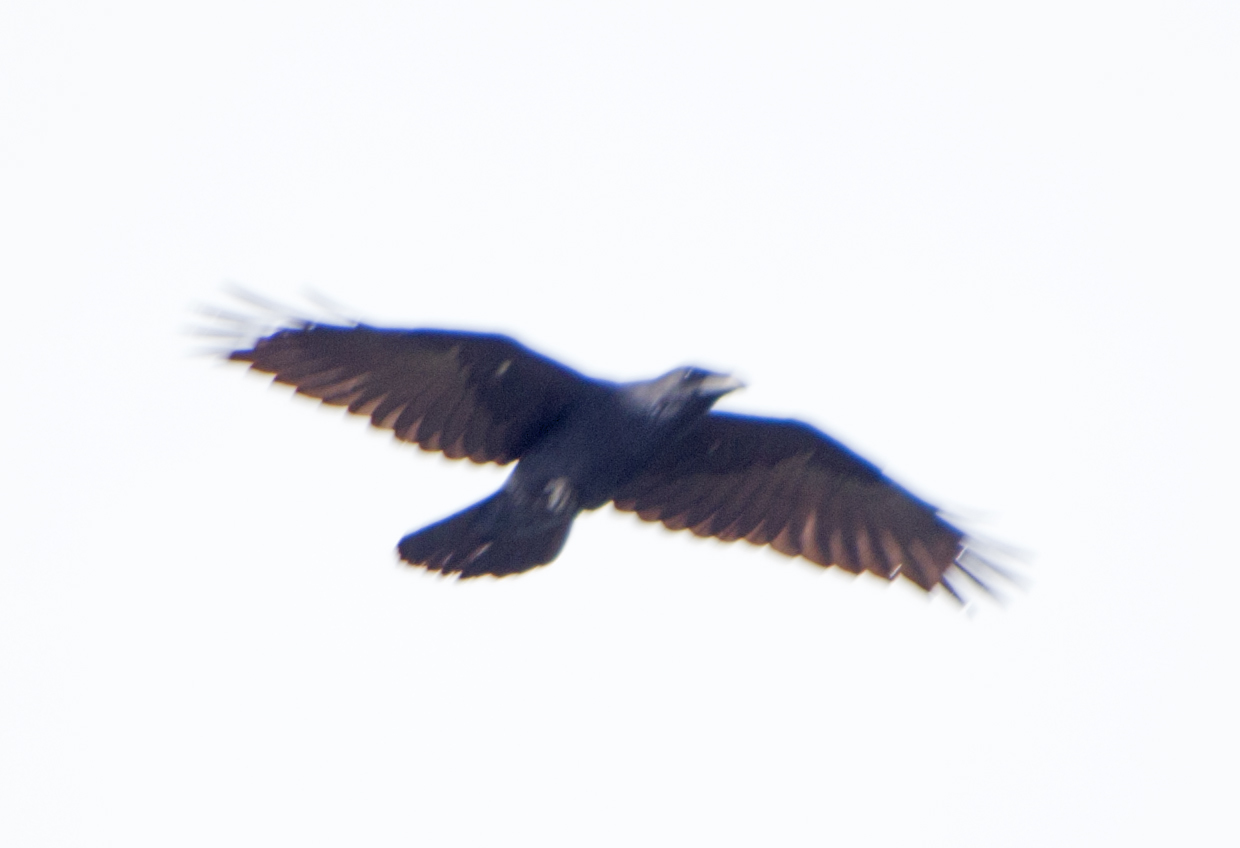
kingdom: Animalia
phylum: Chordata
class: Aves
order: Passeriformes
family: Corvidae
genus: Corvus
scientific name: Corvus corax
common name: Common raven
